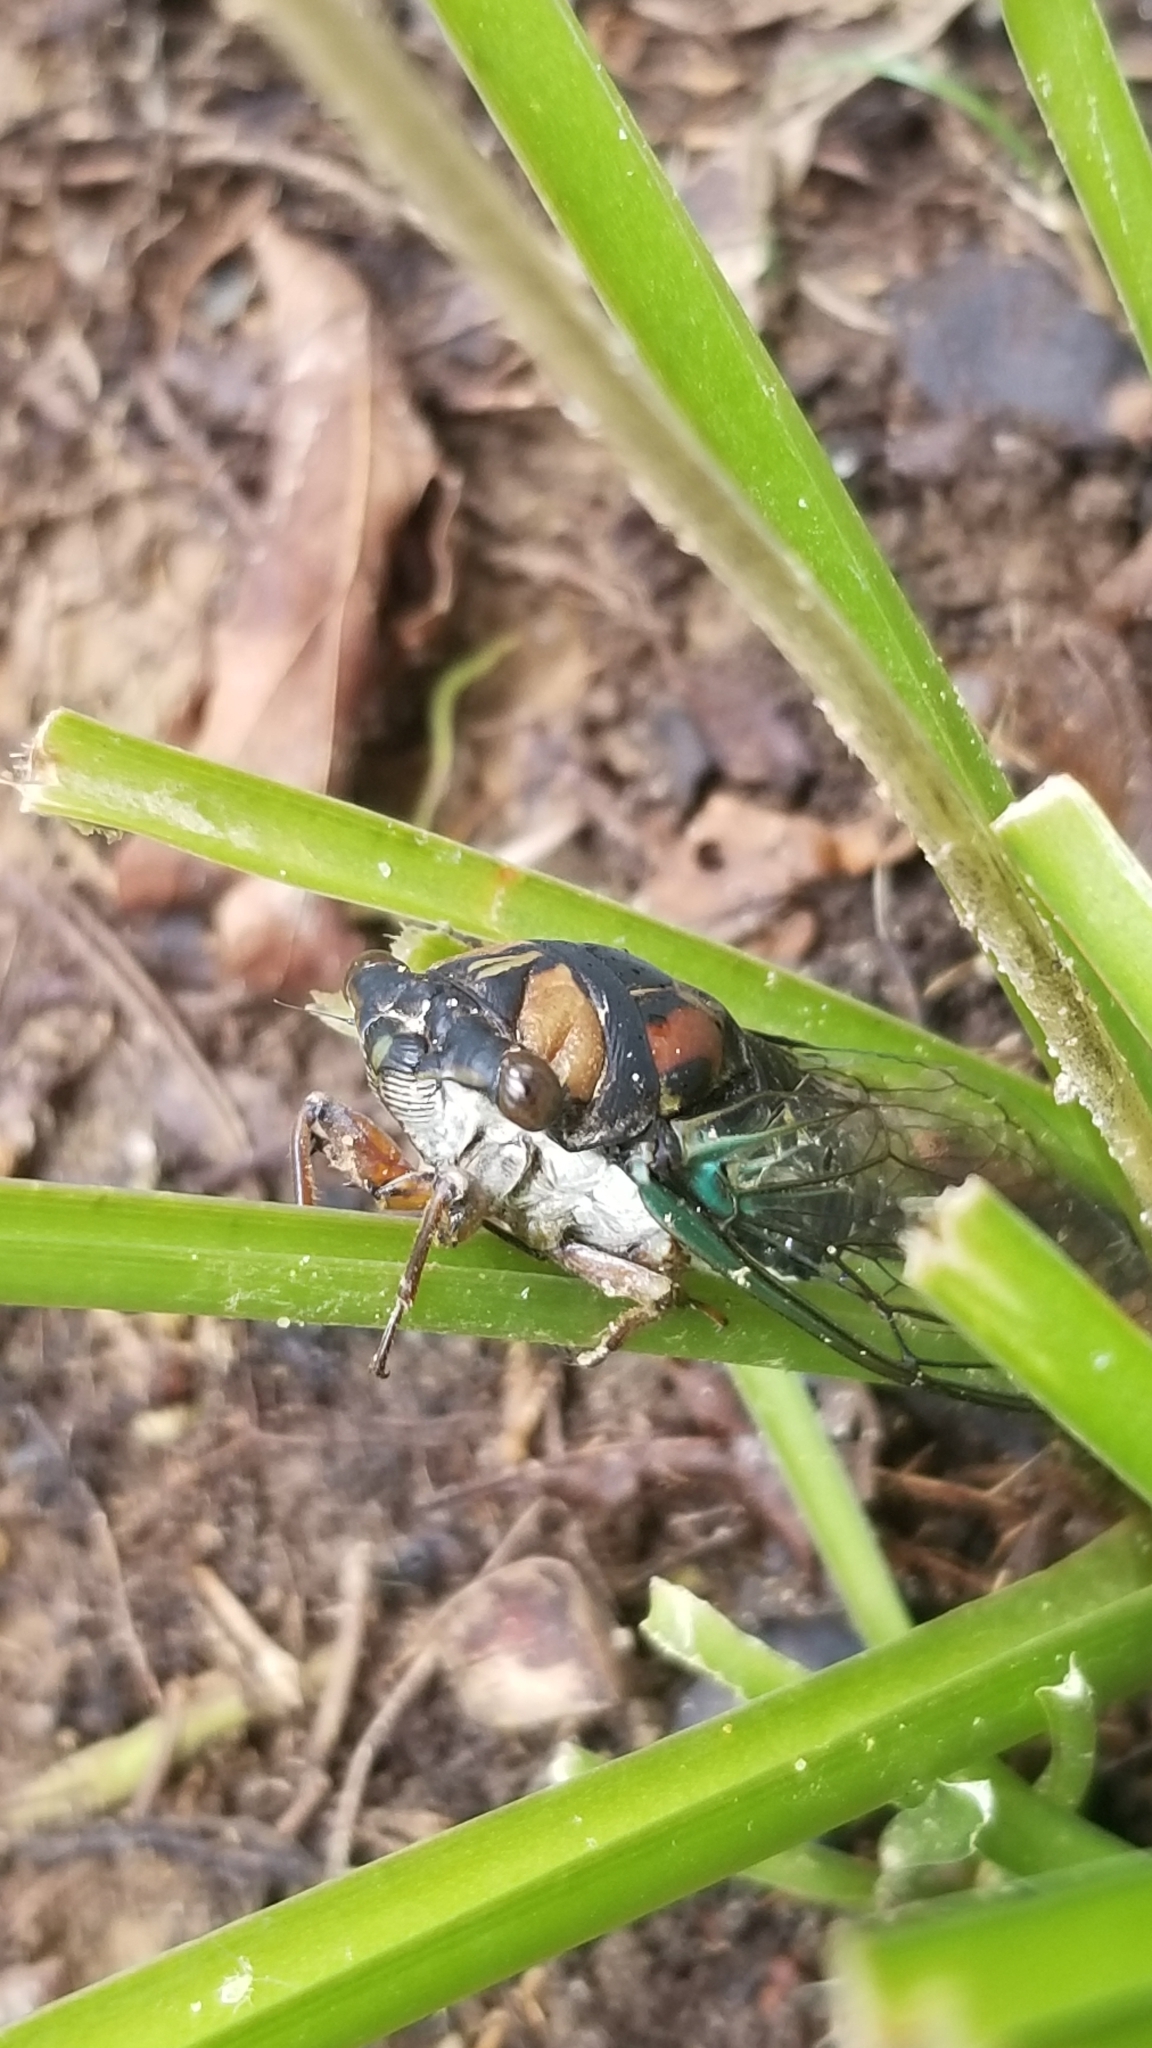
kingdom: Animalia
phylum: Arthropoda
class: Insecta
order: Hemiptera
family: Cicadidae
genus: Neotibicen
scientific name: Neotibicen lyricen
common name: Lyric cicada
